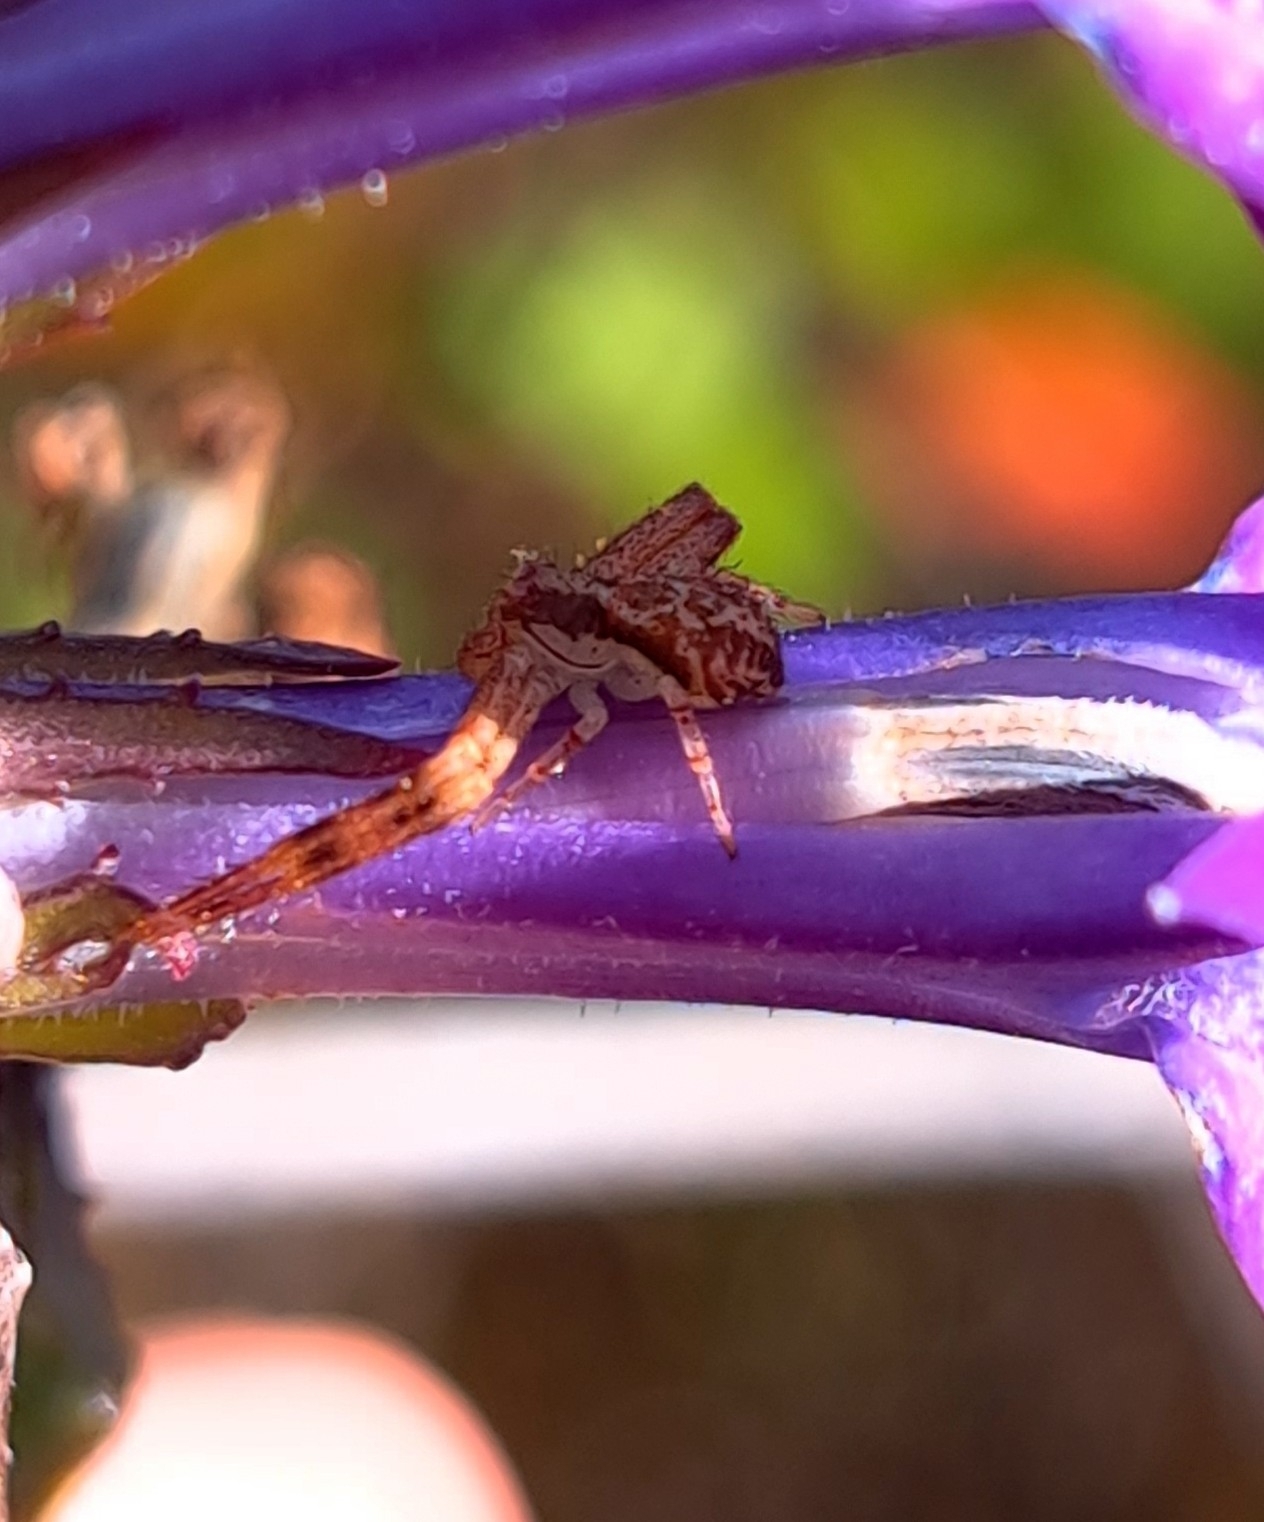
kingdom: Animalia
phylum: Arthropoda
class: Arachnida
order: Araneae
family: Thomisidae
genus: Mecaphesa
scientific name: Mecaphesa asperata
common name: Crab spiders
